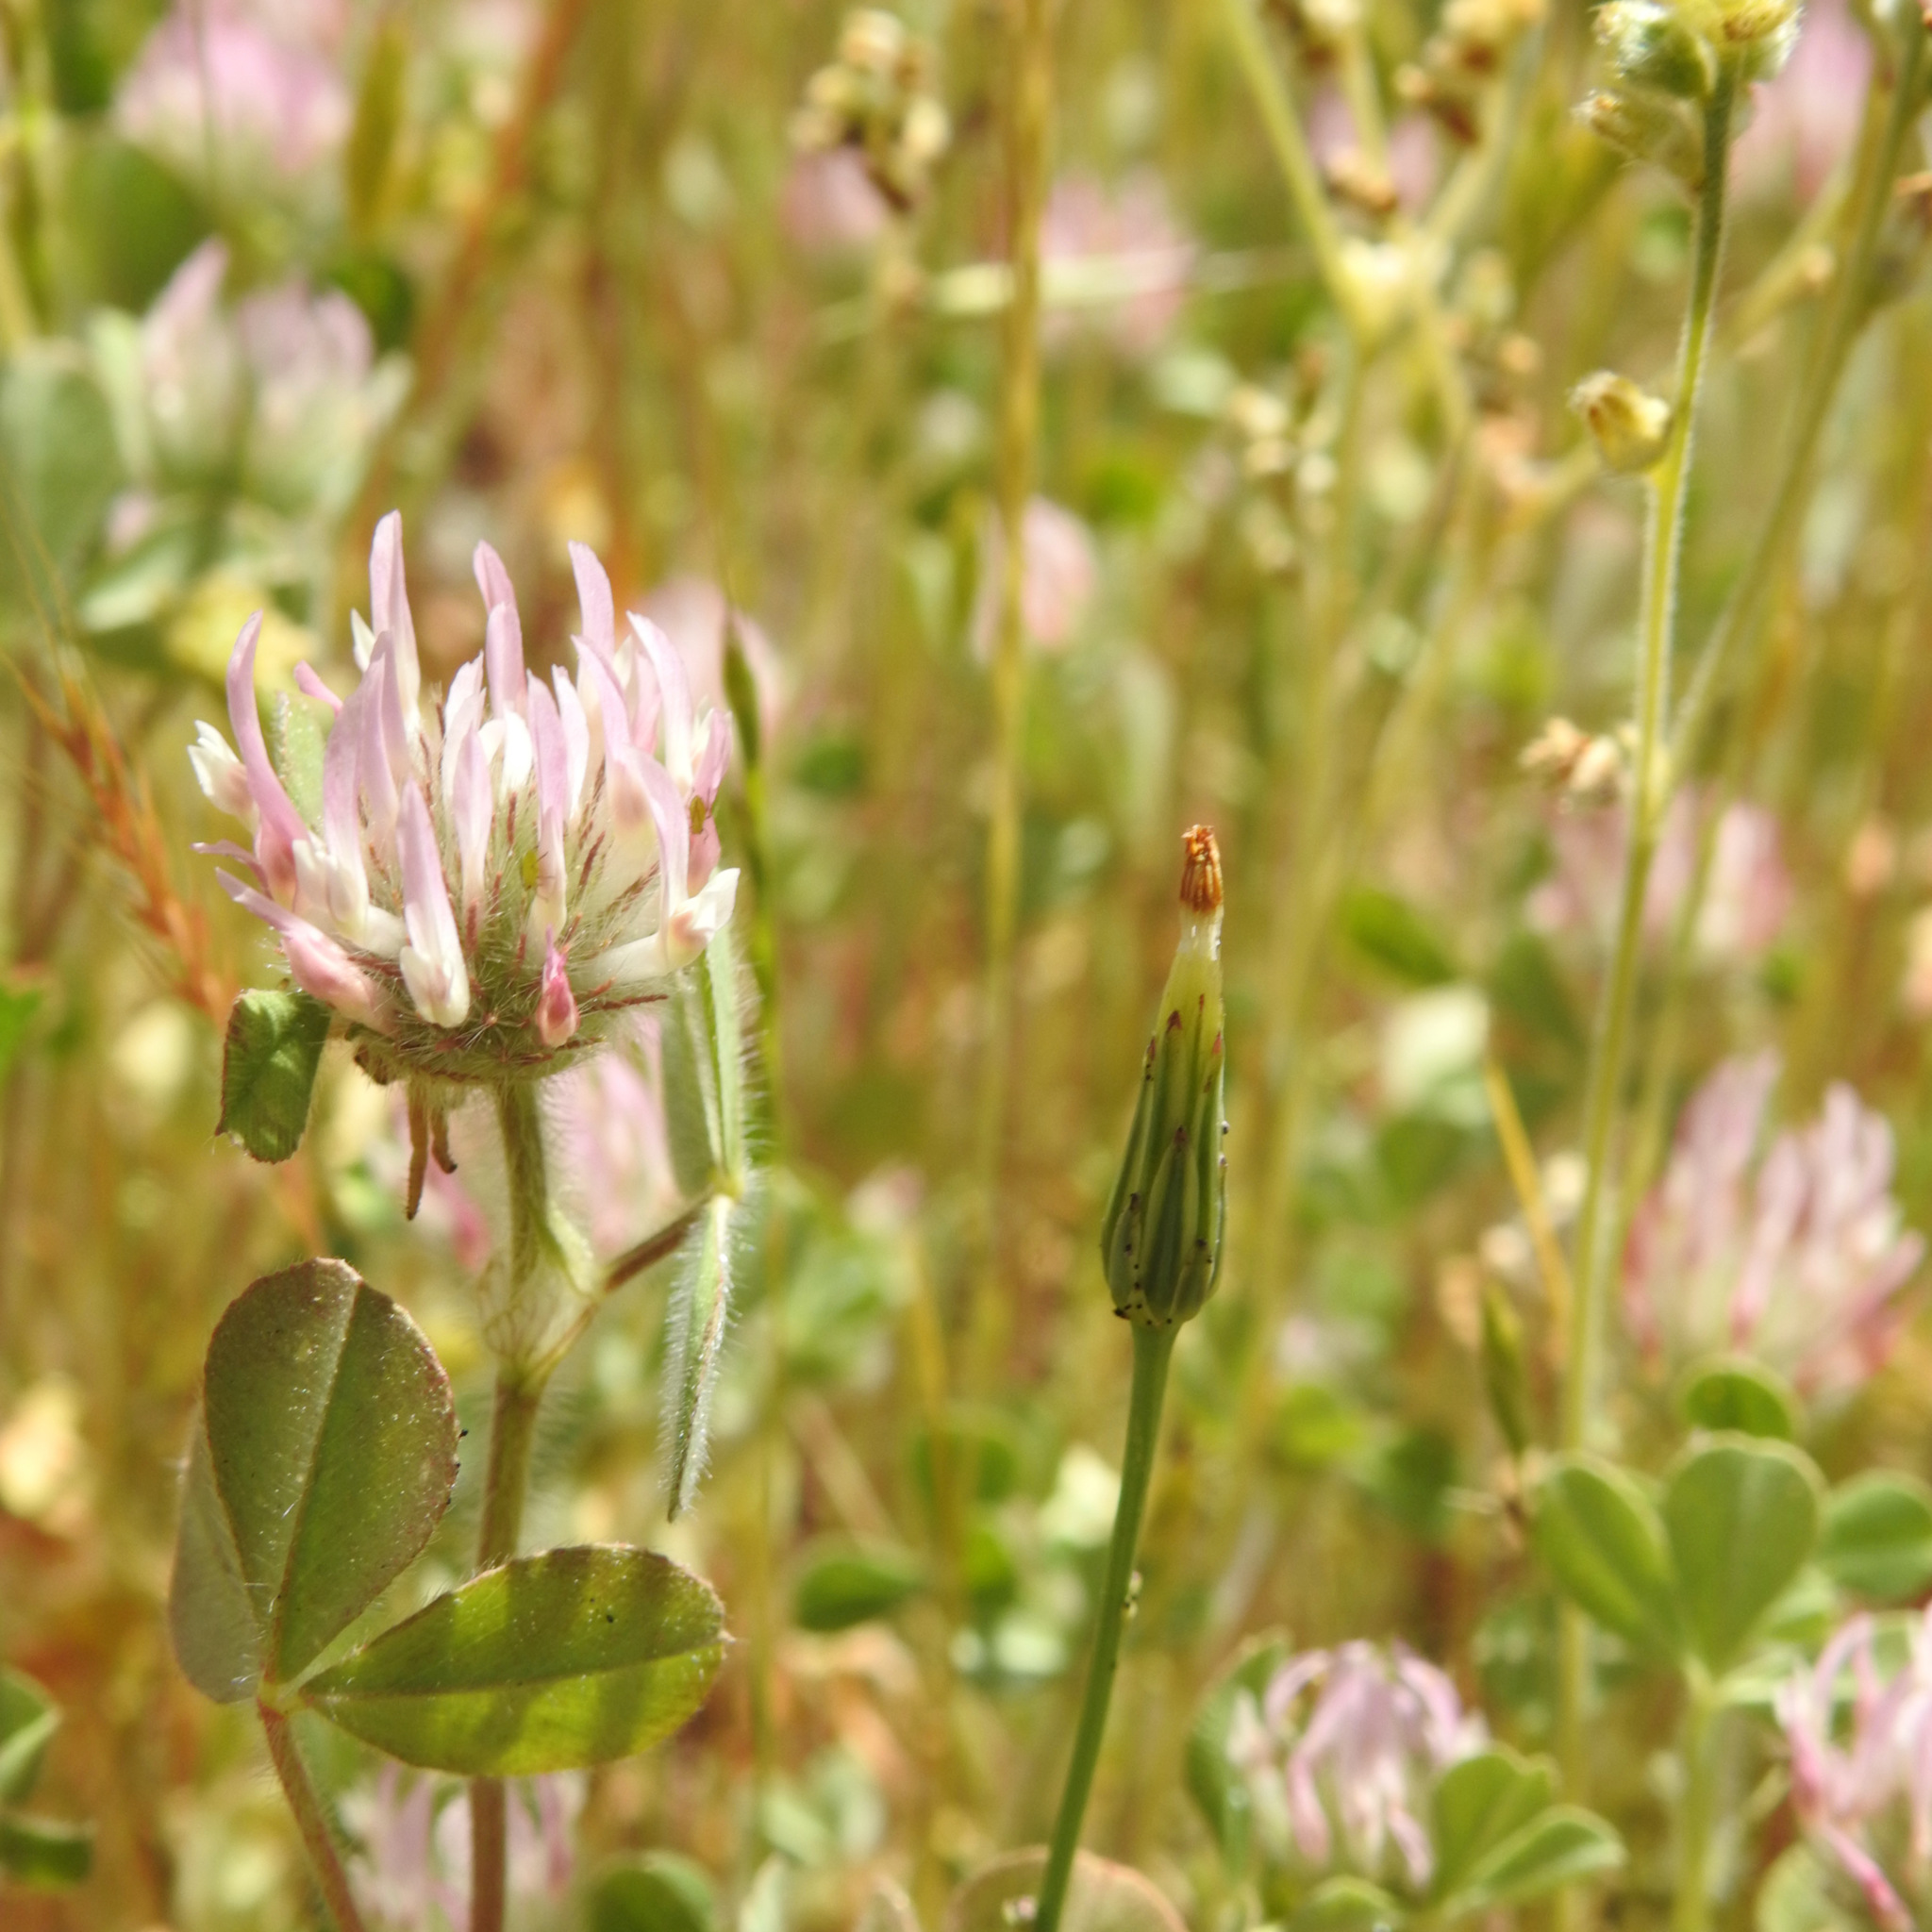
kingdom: Plantae
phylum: Tracheophyta
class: Magnoliopsida
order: Fabales
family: Fabaceae
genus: Trifolium
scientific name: Trifolium hirtum
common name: Rose clover
